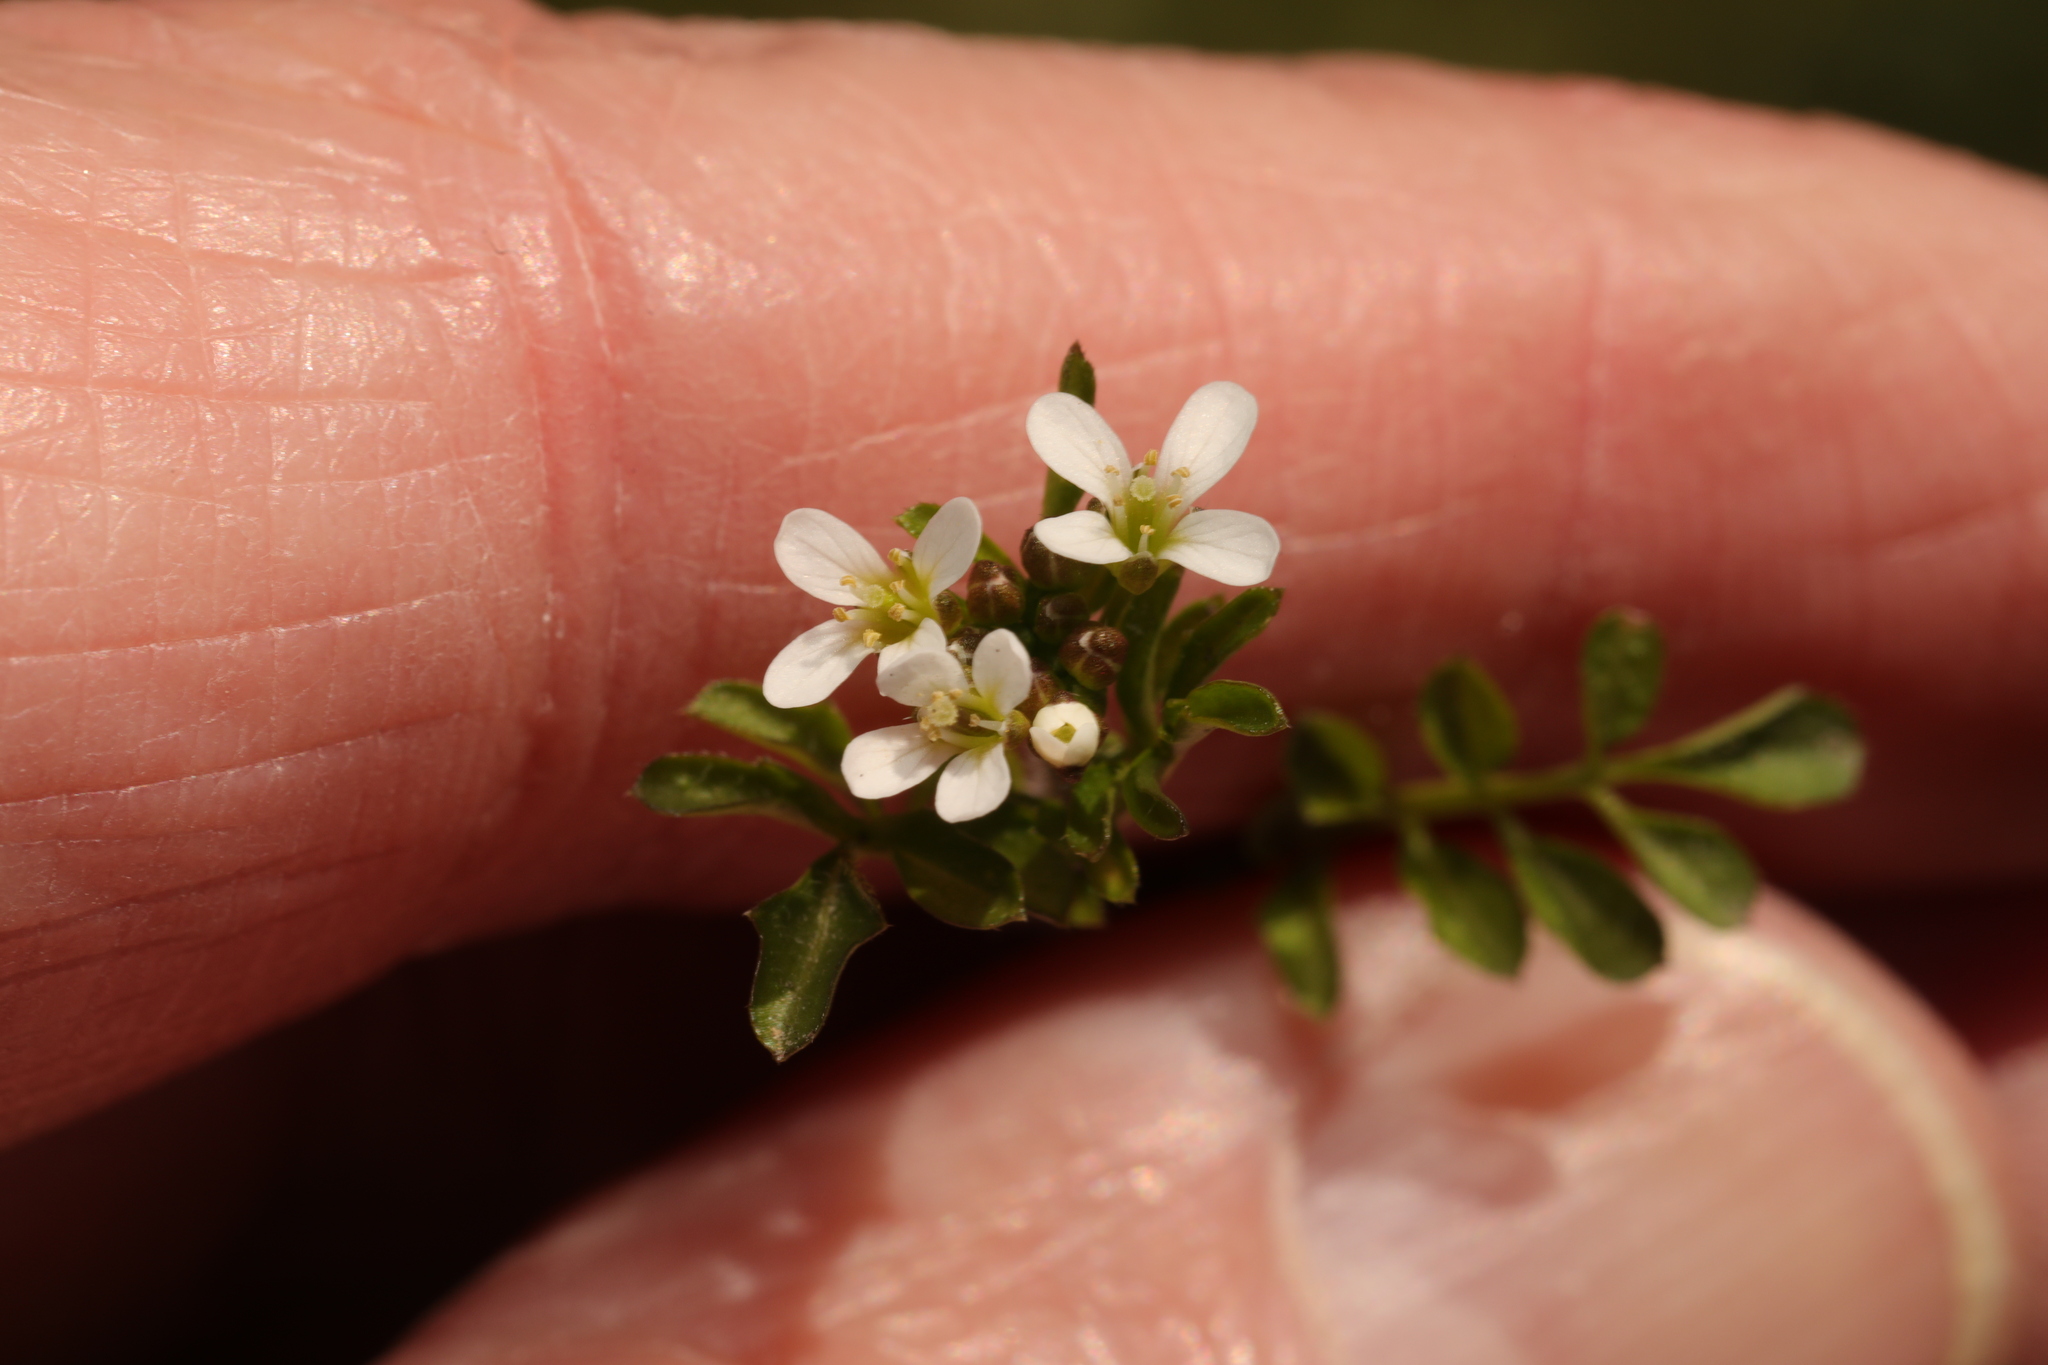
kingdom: Plantae
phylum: Tracheophyta
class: Magnoliopsida
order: Brassicales
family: Brassicaceae
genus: Cardamine
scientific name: Cardamine flexuosa
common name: Woodland bittercress
